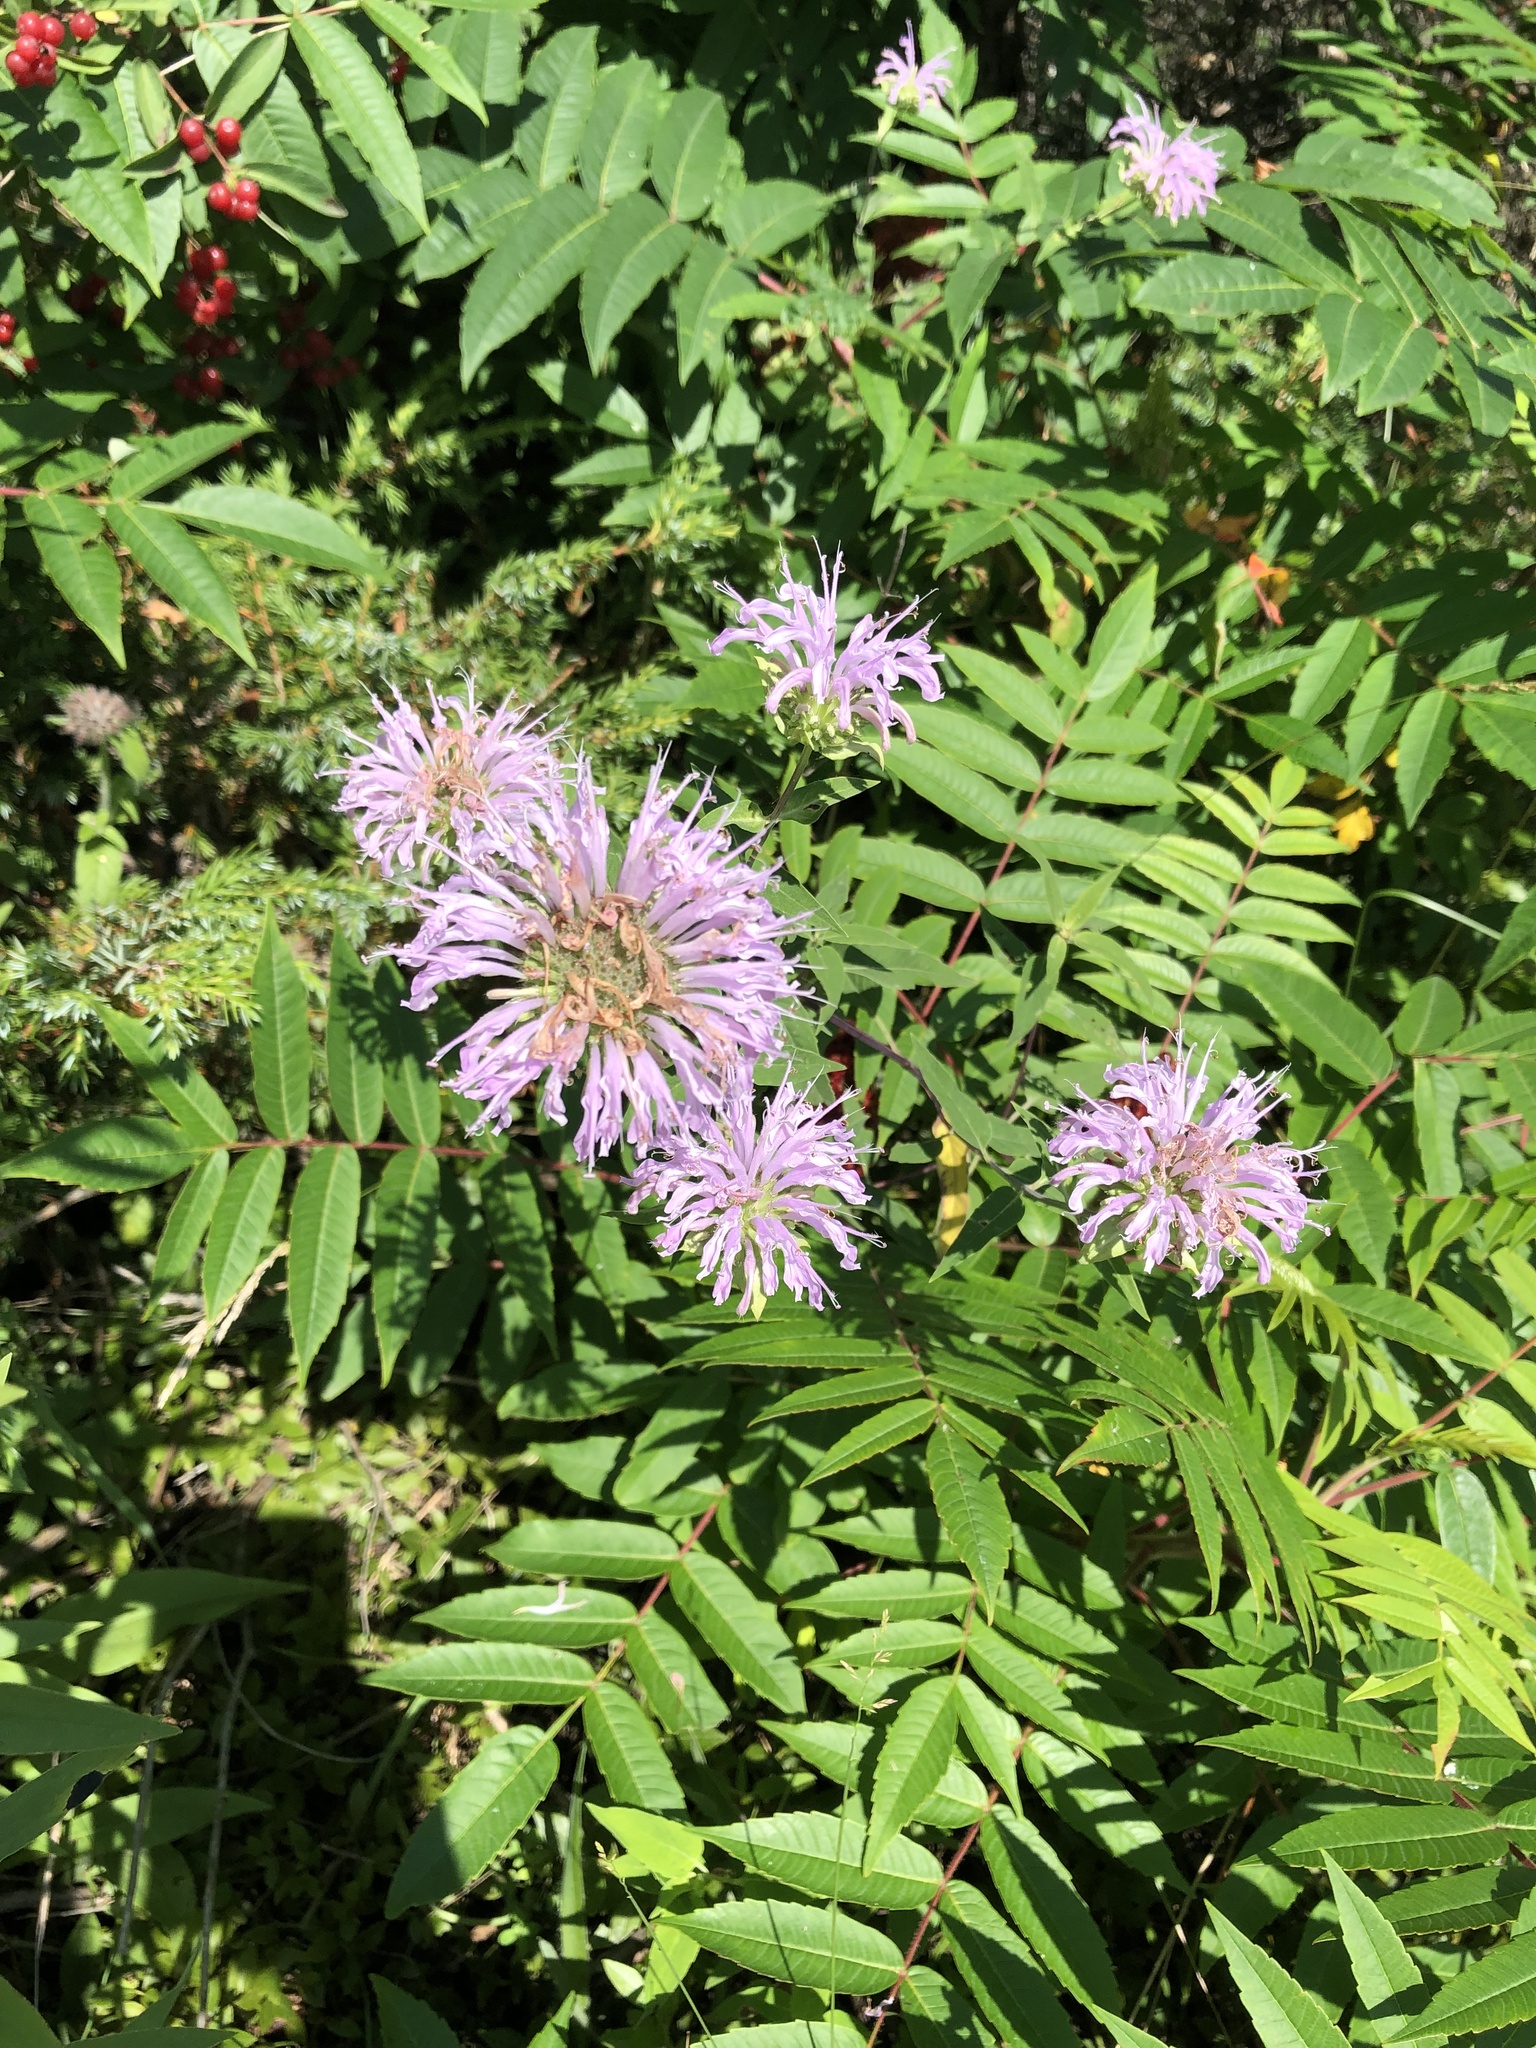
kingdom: Plantae
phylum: Tracheophyta
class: Magnoliopsida
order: Lamiales
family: Lamiaceae
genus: Monarda
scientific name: Monarda fistulosa
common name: Purple beebalm
